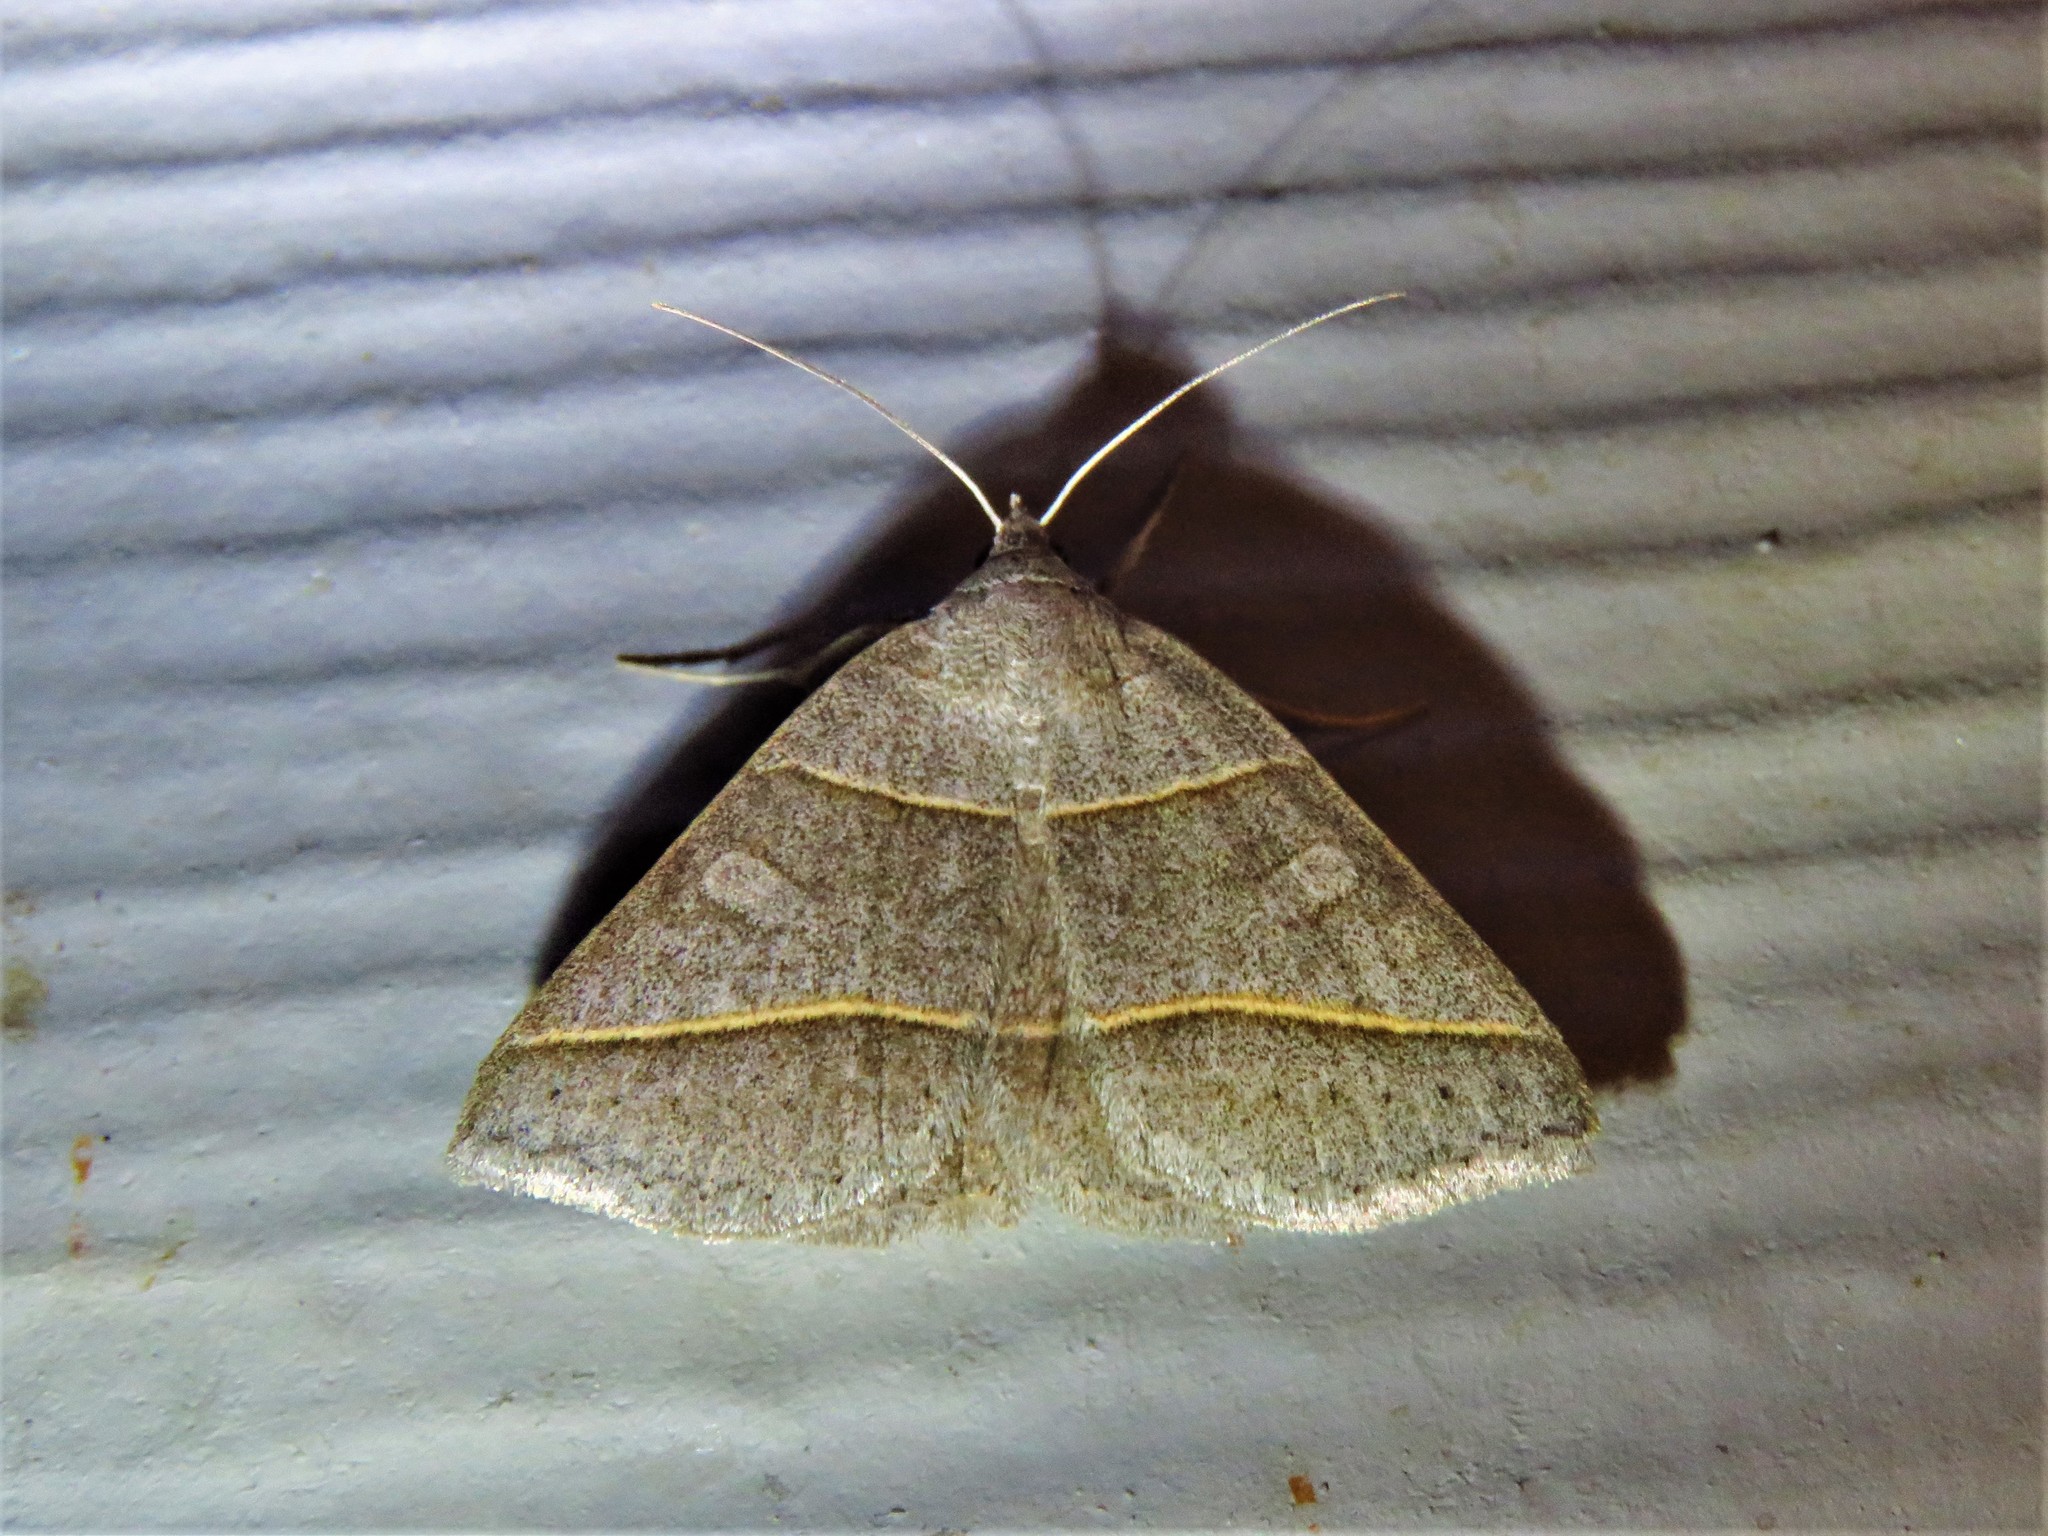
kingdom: Animalia
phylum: Arthropoda
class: Insecta
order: Lepidoptera
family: Erebidae
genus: Ptichodis
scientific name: Ptichodis herbarum
